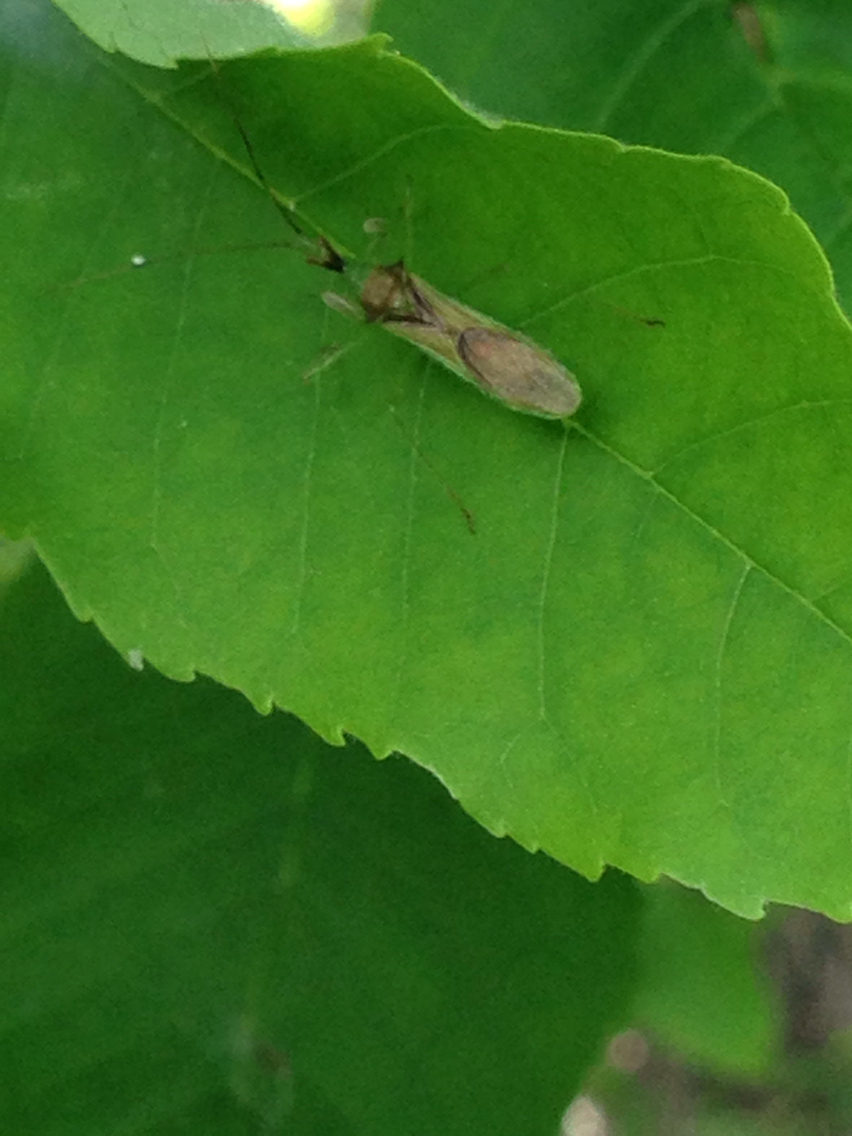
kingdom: Animalia
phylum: Arthropoda
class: Insecta
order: Hemiptera
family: Reduviidae
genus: Zelus
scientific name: Zelus luridus
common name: Pale green assassin bug
